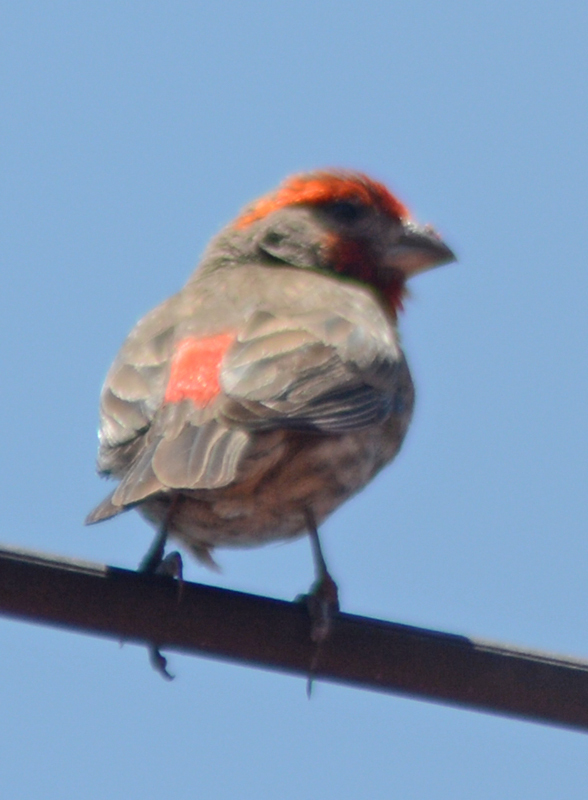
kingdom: Animalia
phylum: Chordata
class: Aves
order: Passeriformes
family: Fringillidae
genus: Haemorhous
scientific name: Haemorhous mexicanus
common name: House finch
